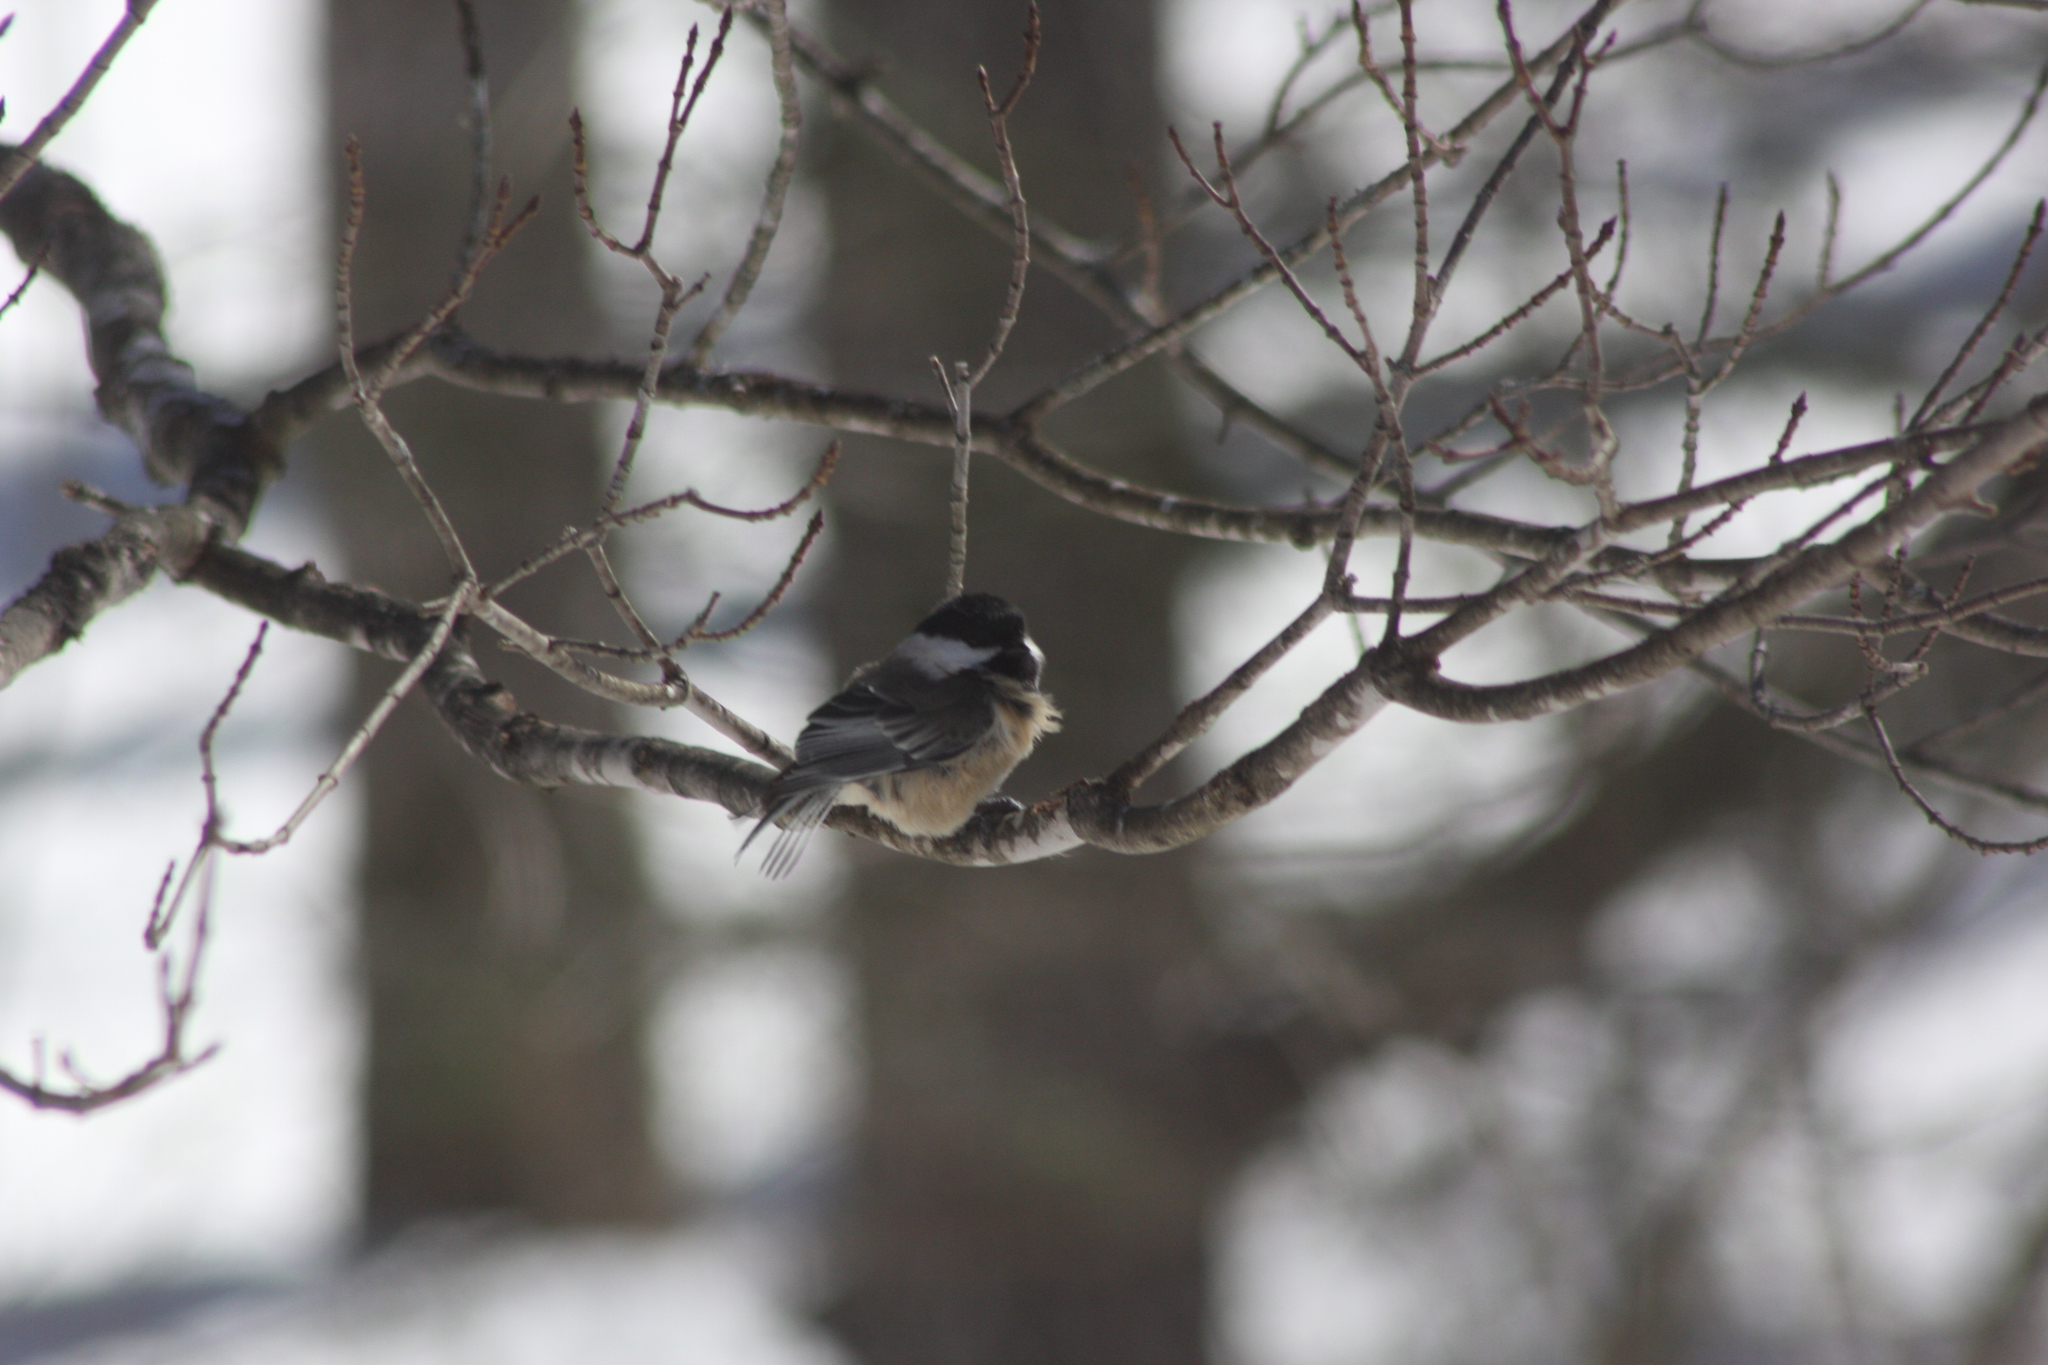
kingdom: Animalia
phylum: Chordata
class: Aves
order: Passeriformes
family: Paridae
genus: Poecile
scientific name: Poecile atricapillus
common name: Black-capped chickadee
